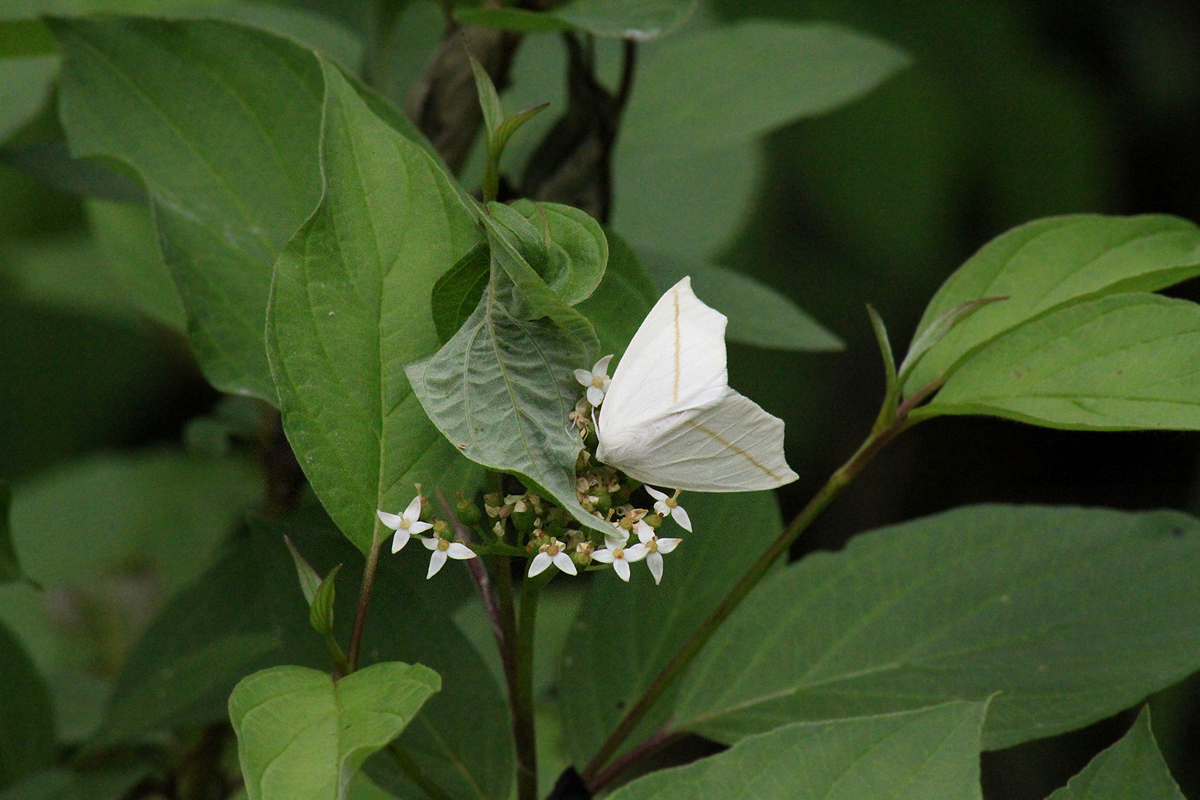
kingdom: Animalia
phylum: Arthropoda
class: Insecta
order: Lepidoptera
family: Geometridae
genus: Tetracis
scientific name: Tetracis cachexiata
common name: White slant-line
